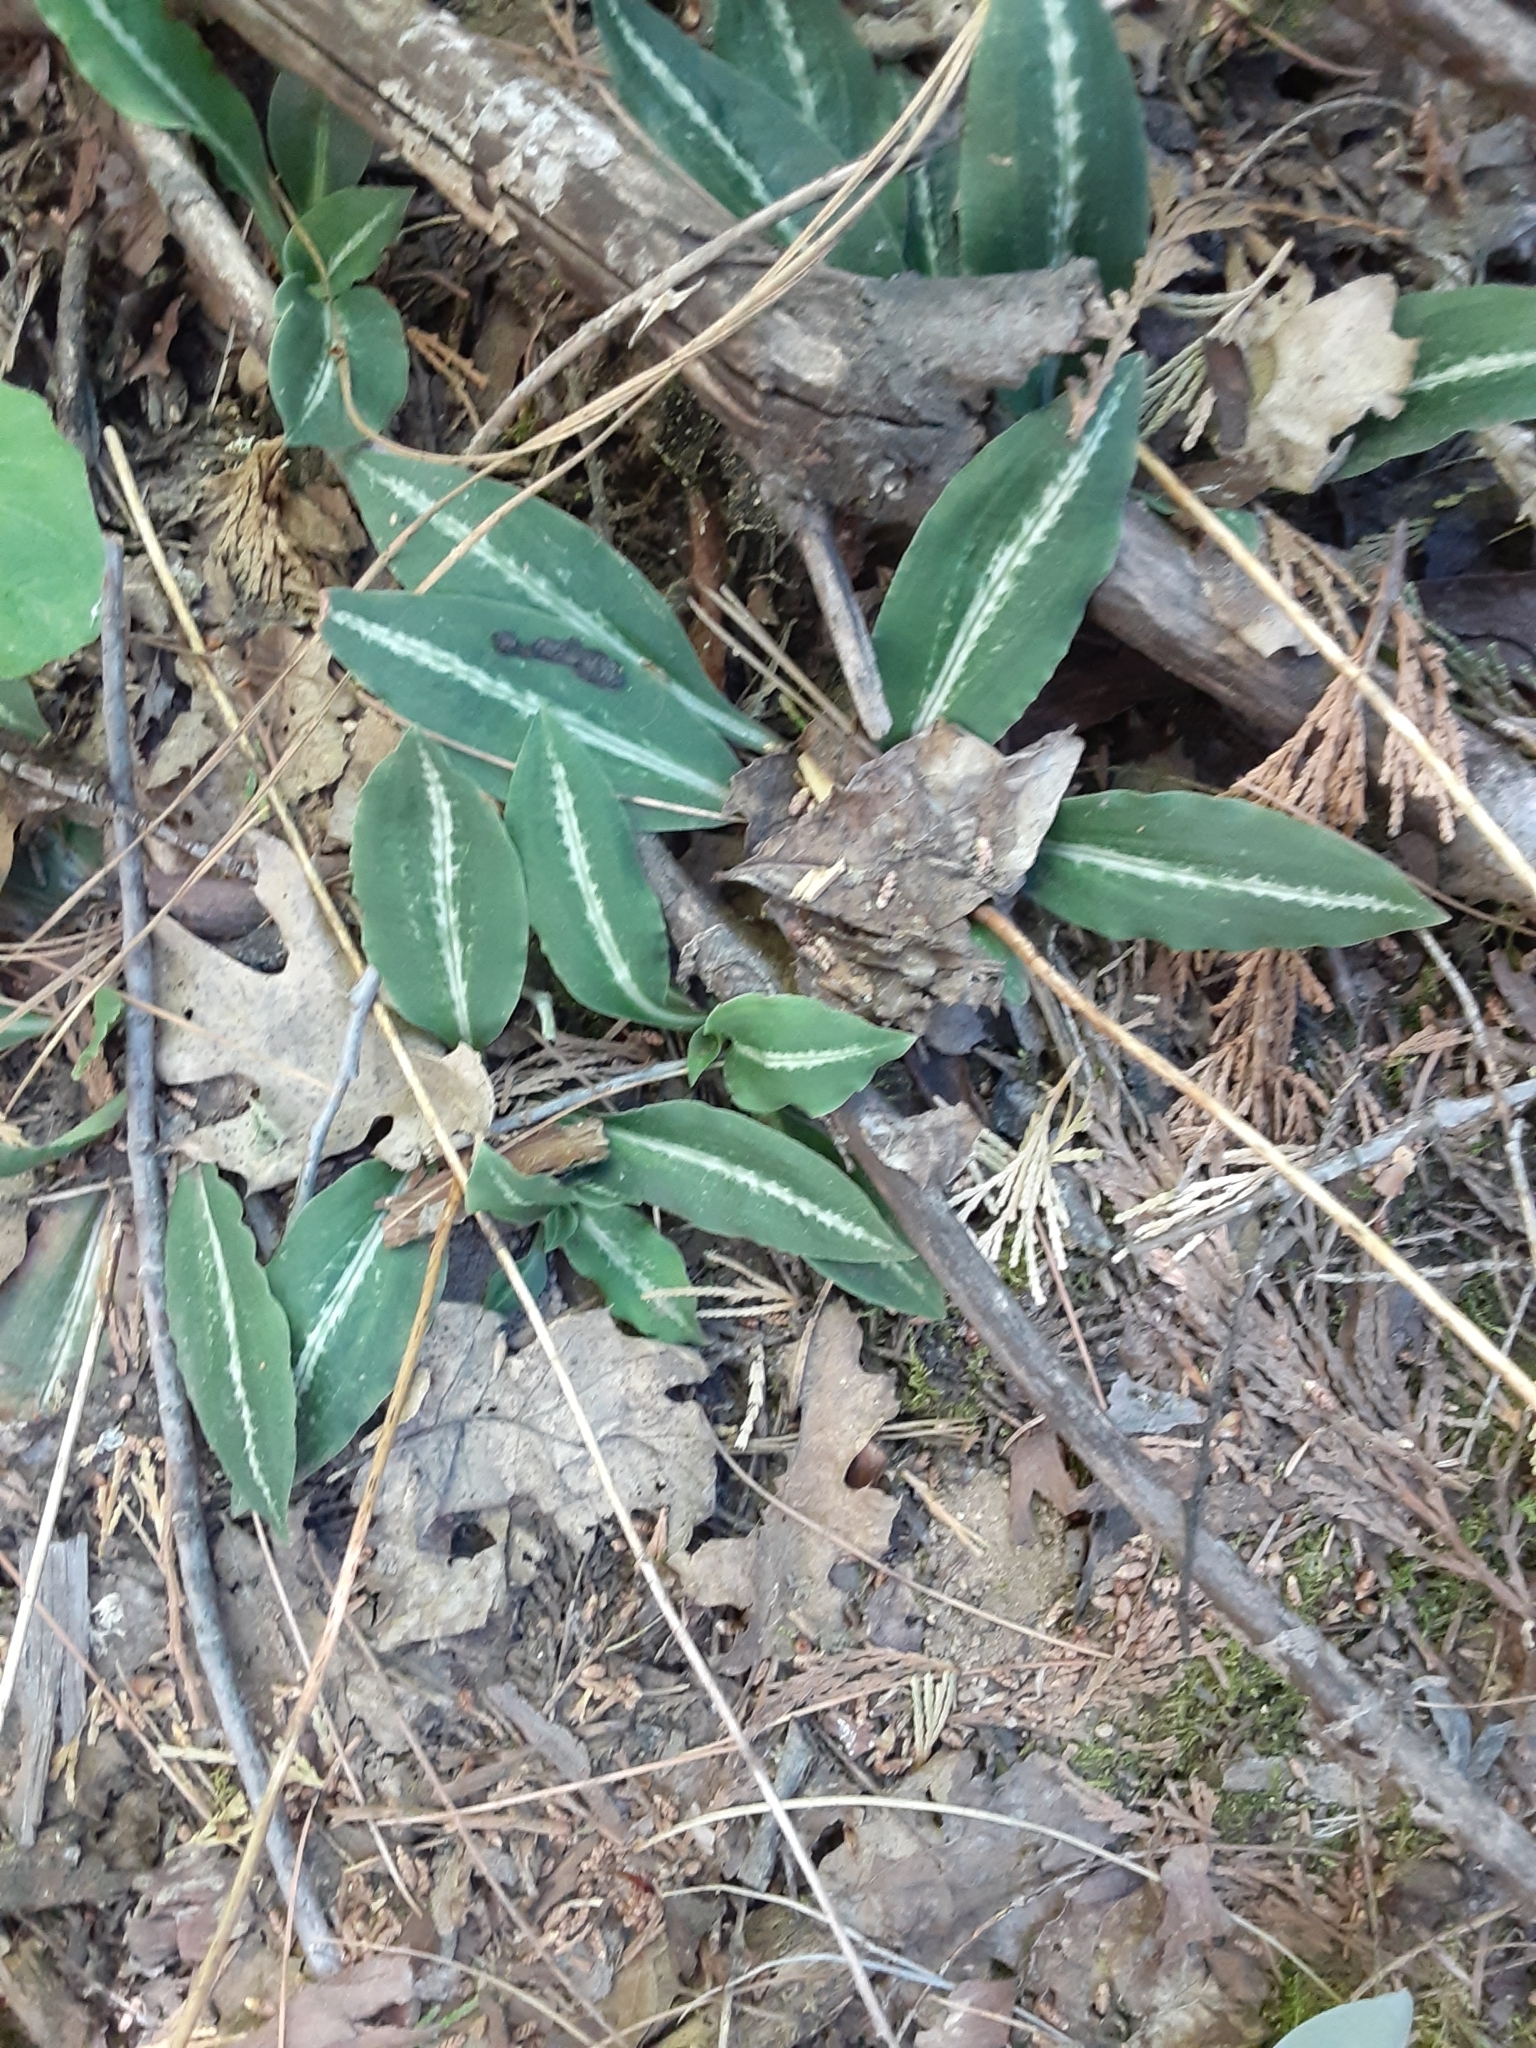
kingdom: Plantae
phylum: Tracheophyta
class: Liliopsida
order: Asparagales
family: Orchidaceae
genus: Goodyera
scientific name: Goodyera oblongifolia
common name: Giant rattlesnake-plantain
